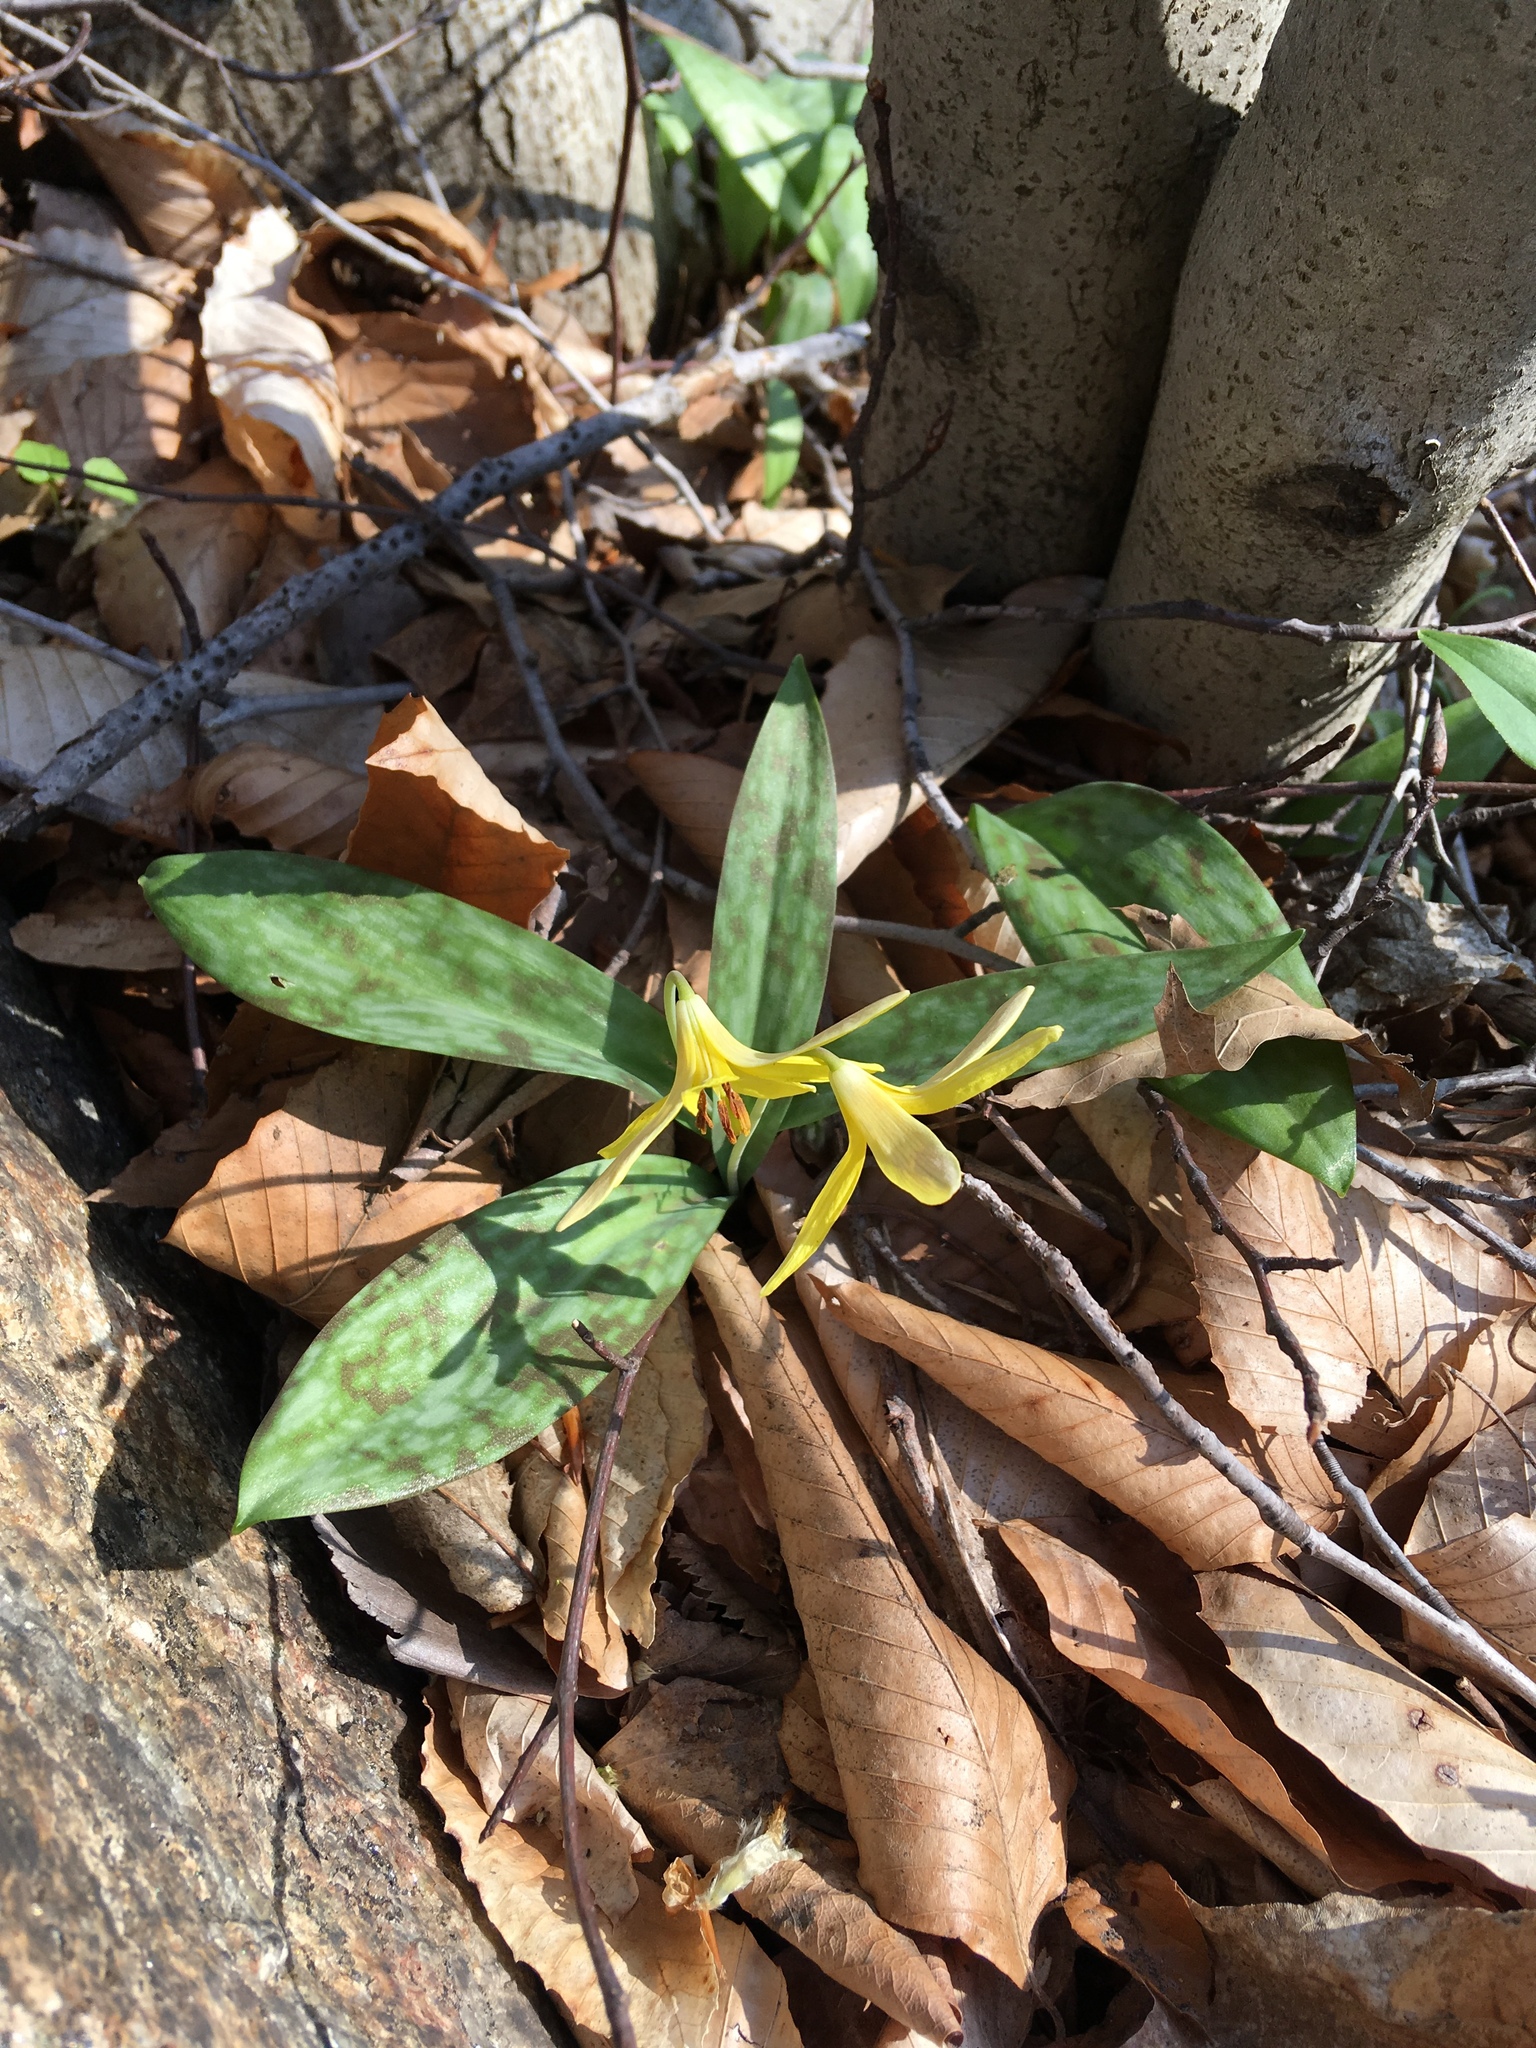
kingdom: Plantae
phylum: Tracheophyta
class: Liliopsida
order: Liliales
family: Liliaceae
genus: Erythronium
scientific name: Erythronium americanum
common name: Yellow adder's-tongue
